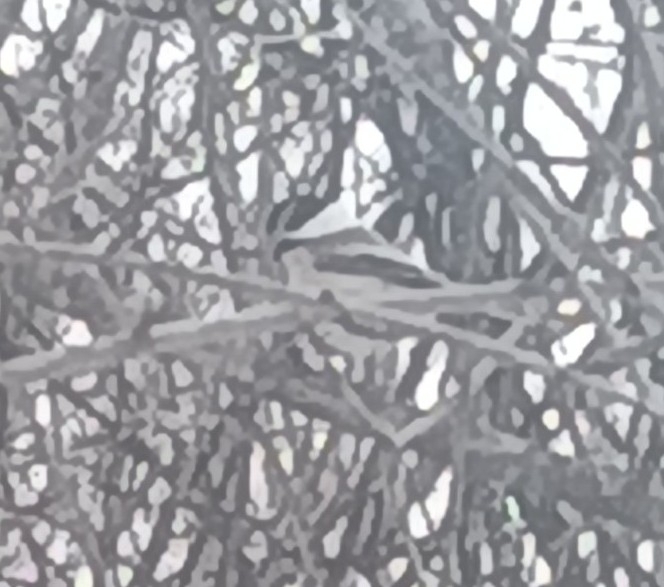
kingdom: Animalia
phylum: Chordata
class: Aves
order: Passeriformes
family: Paridae
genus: Poecile
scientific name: Poecile atricapillus
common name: Black-capped chickadee
